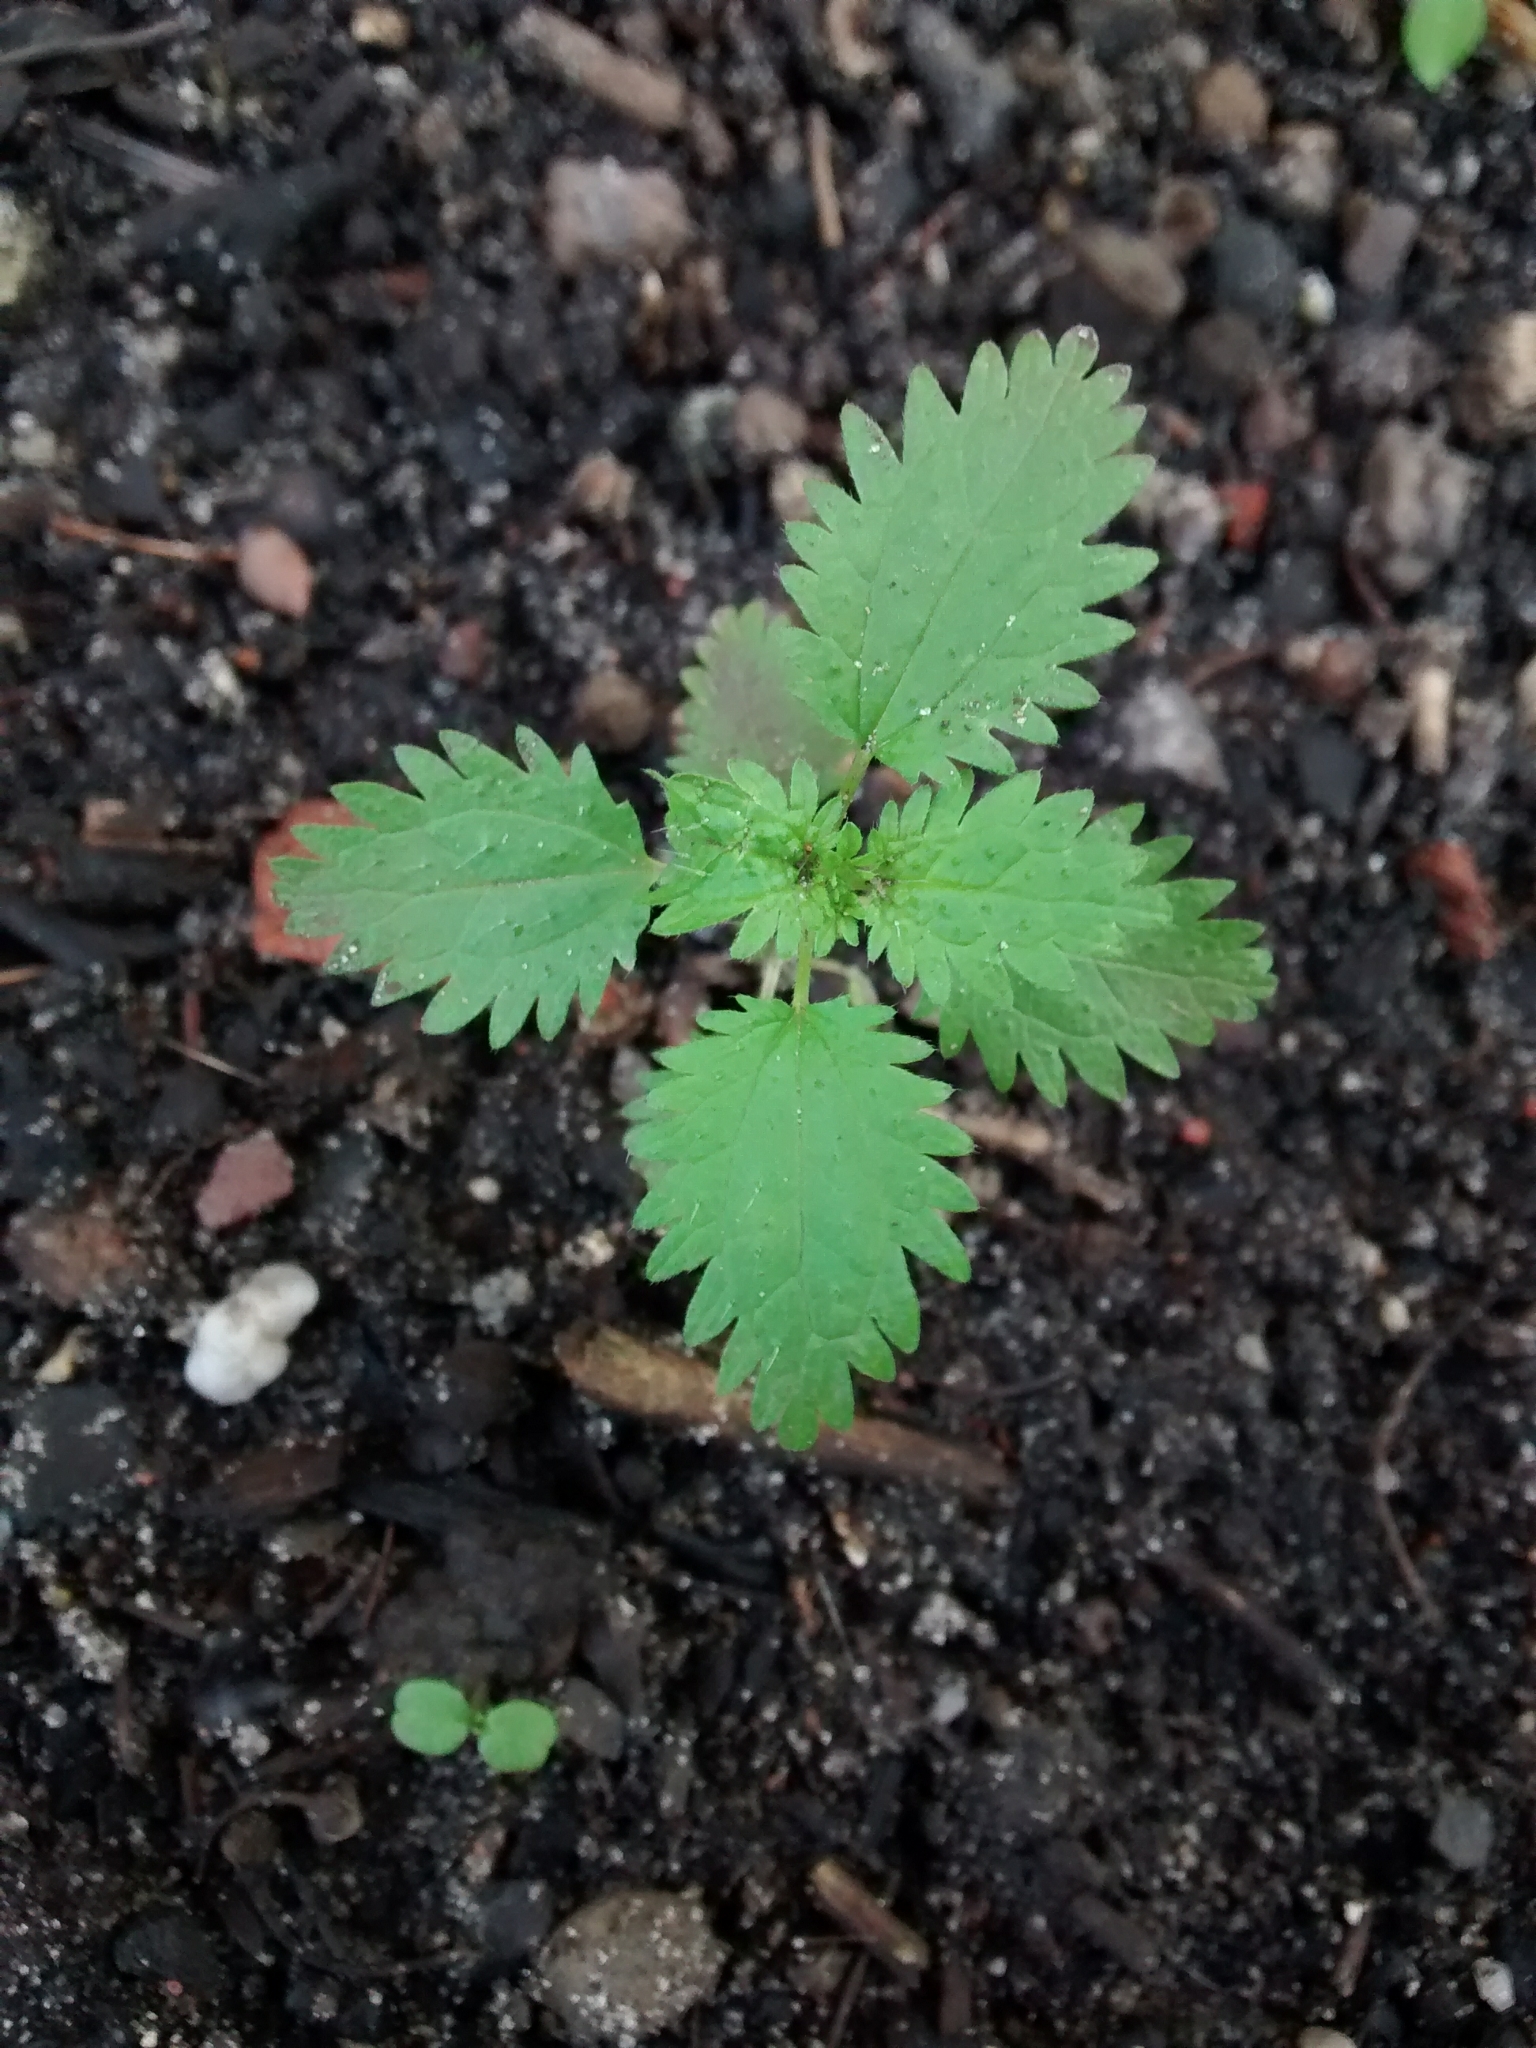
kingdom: Plantae
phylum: Tracheophyta
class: Magnoliopsida
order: Rosales
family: Urticaceae
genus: Urtica
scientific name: Urtica urens
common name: Dwarf nettle
